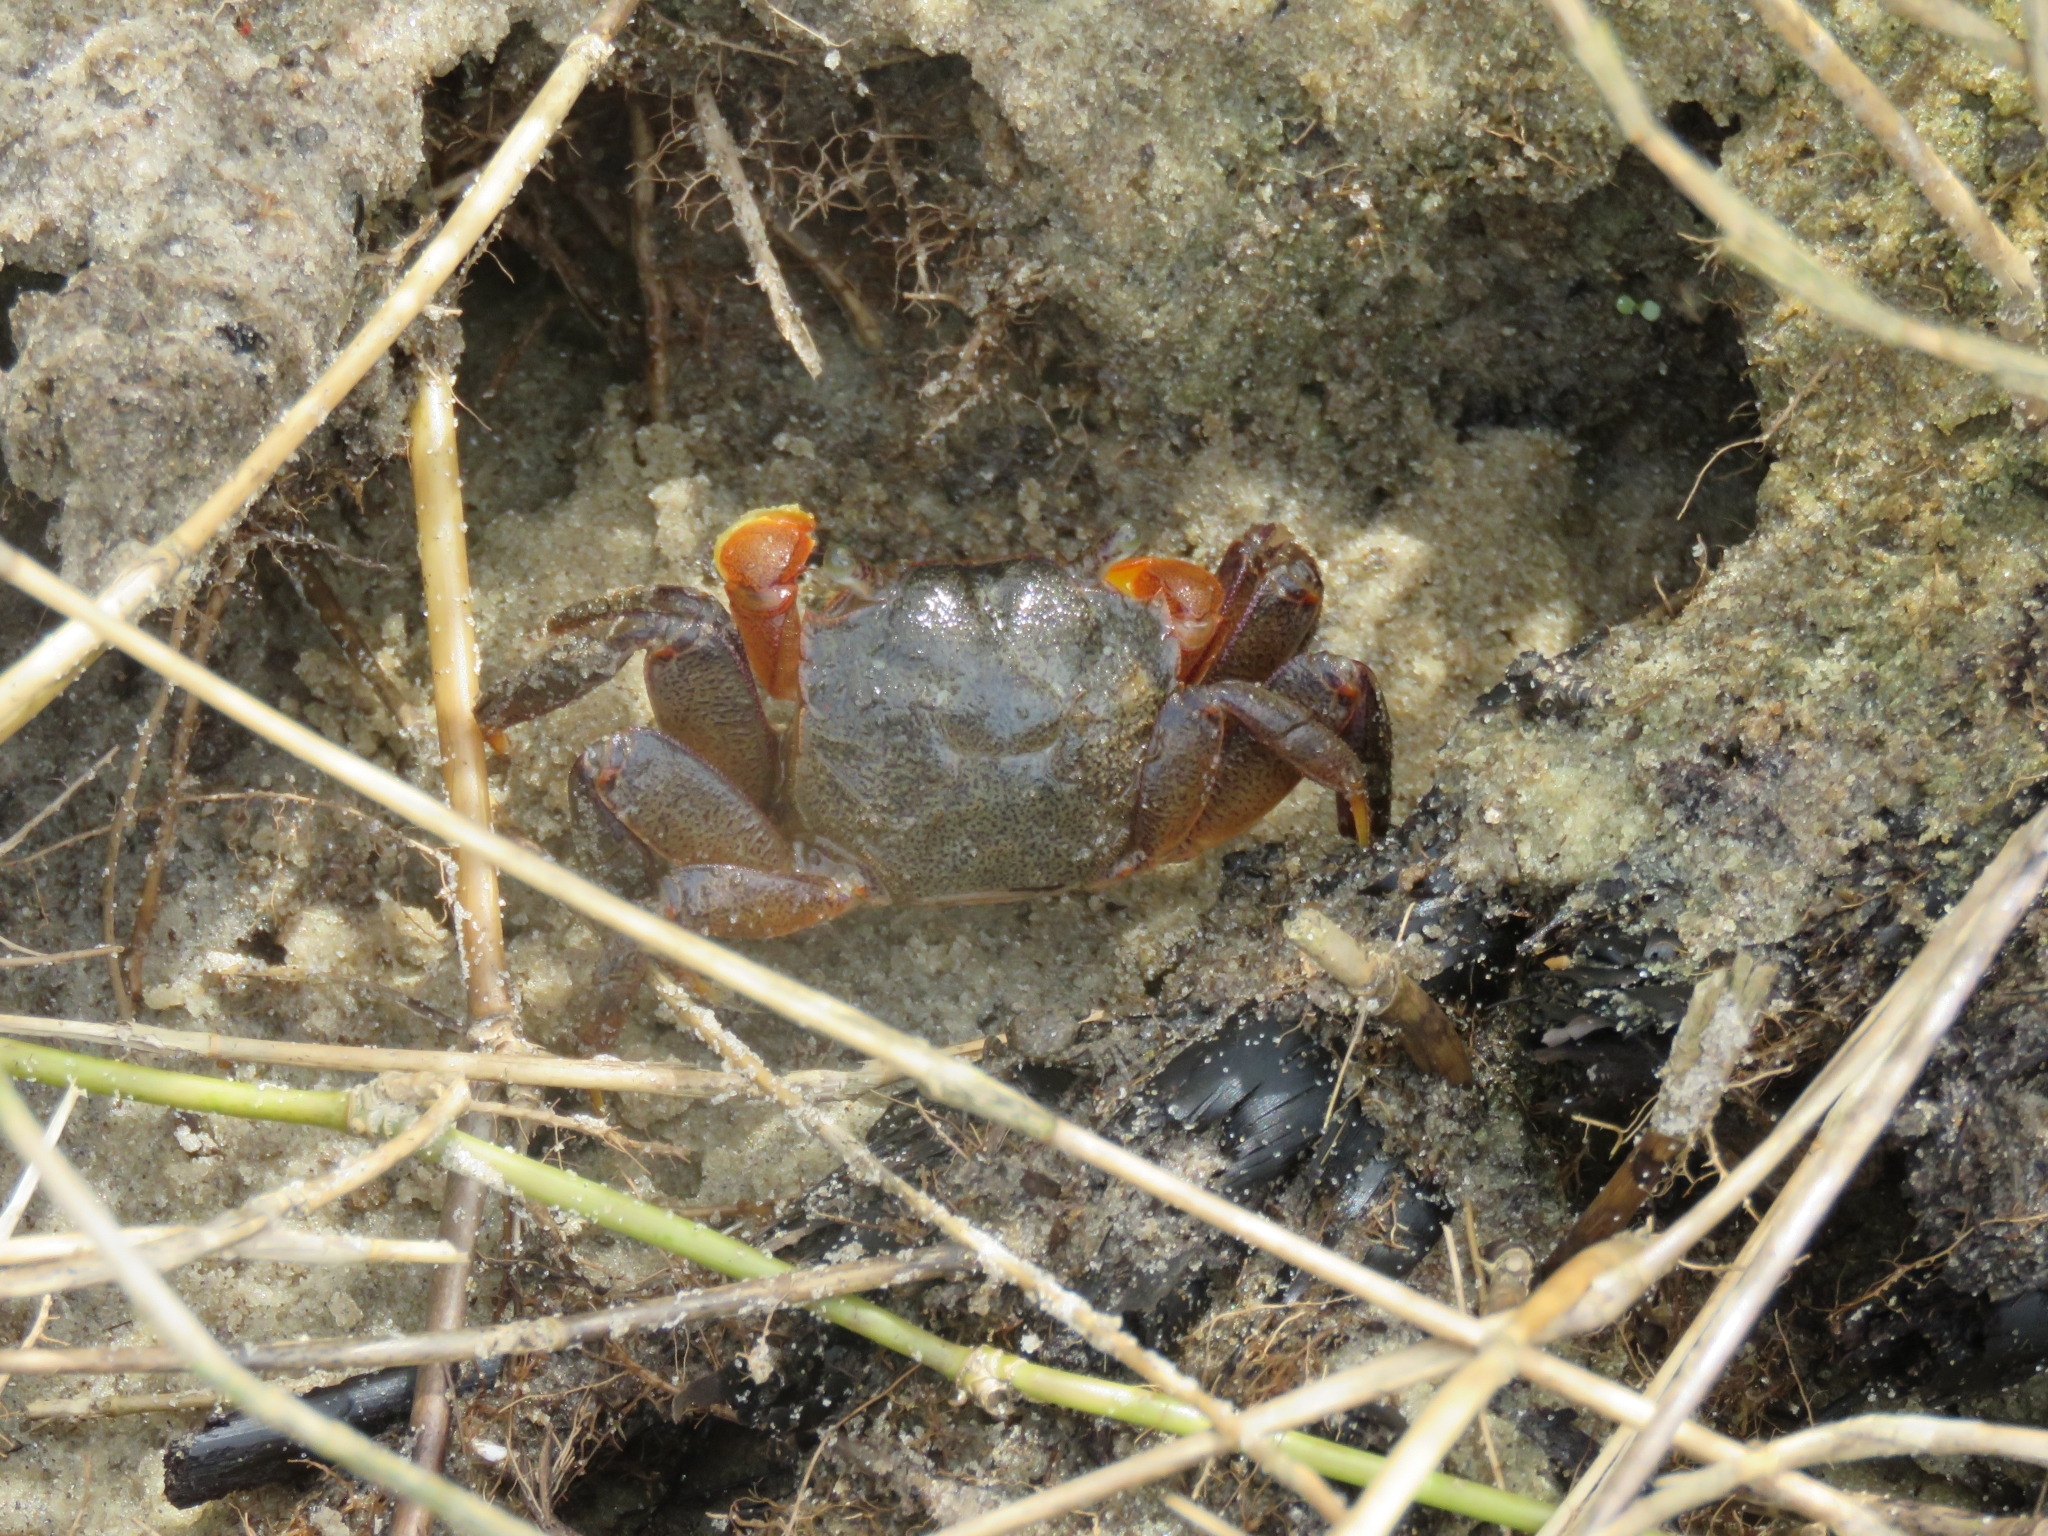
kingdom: Animalia
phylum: Arthropoda
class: Malacostraca
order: Decapoda
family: Varunidae
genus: Neohelice
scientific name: Neohelice granulata
